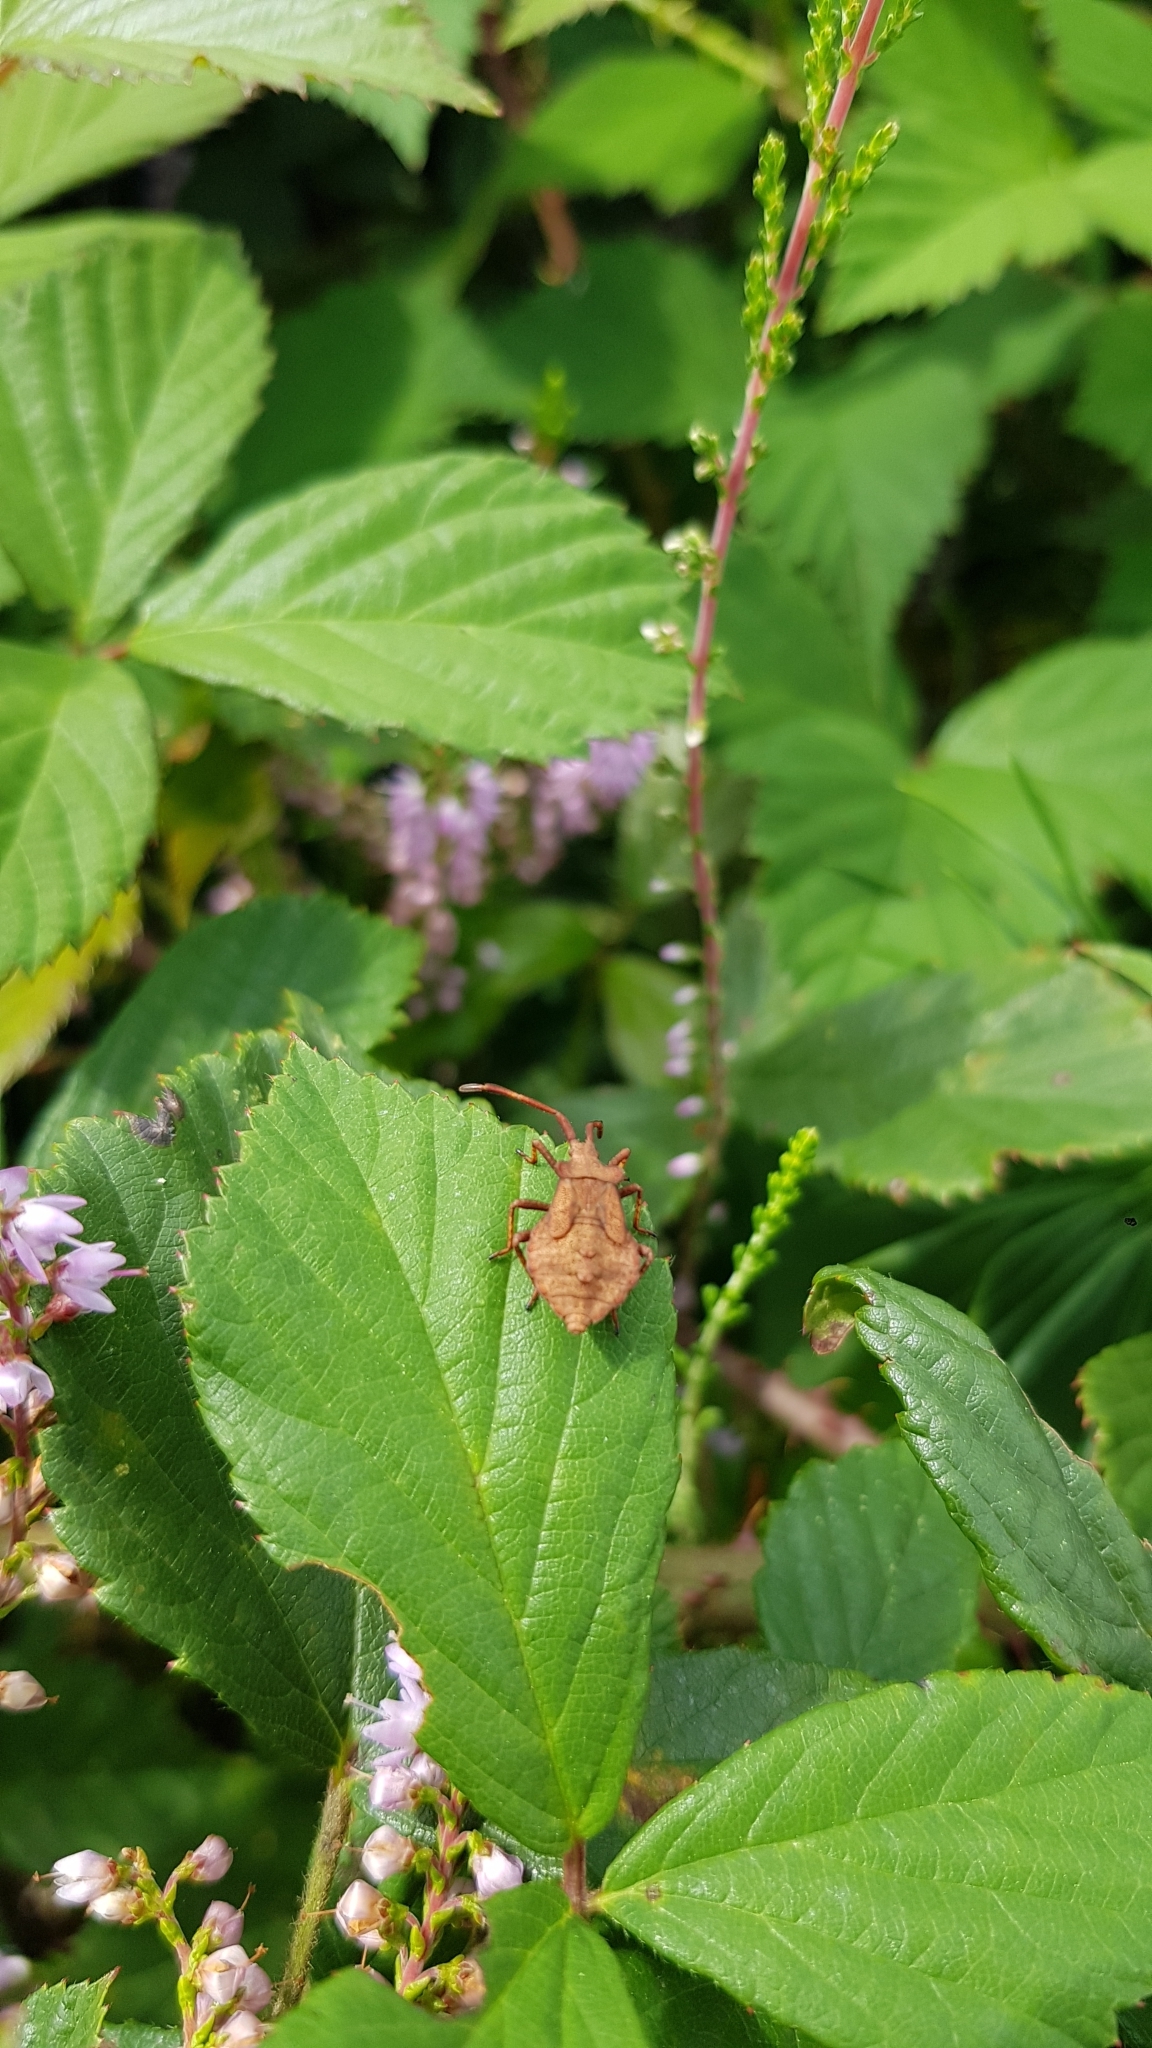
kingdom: Animalia
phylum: Arthropoda
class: Insecta
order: Hemiptera
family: Coreidae
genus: Coreus
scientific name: Coreus marginatus
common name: Dock bug
